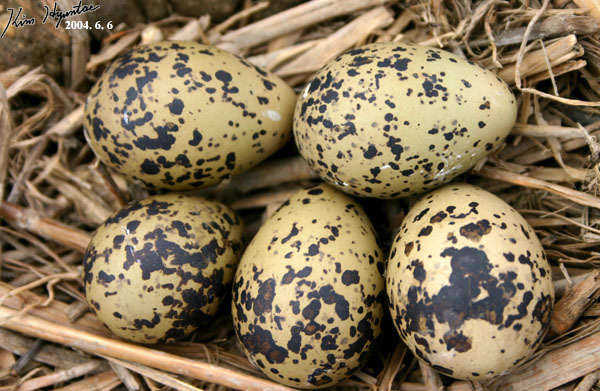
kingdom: Animalia
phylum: Chordata
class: Aves
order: Charadriiformes
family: Recurvirostridae
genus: Himantopus
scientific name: Himantopus himantopus
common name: Black-winged stilt
